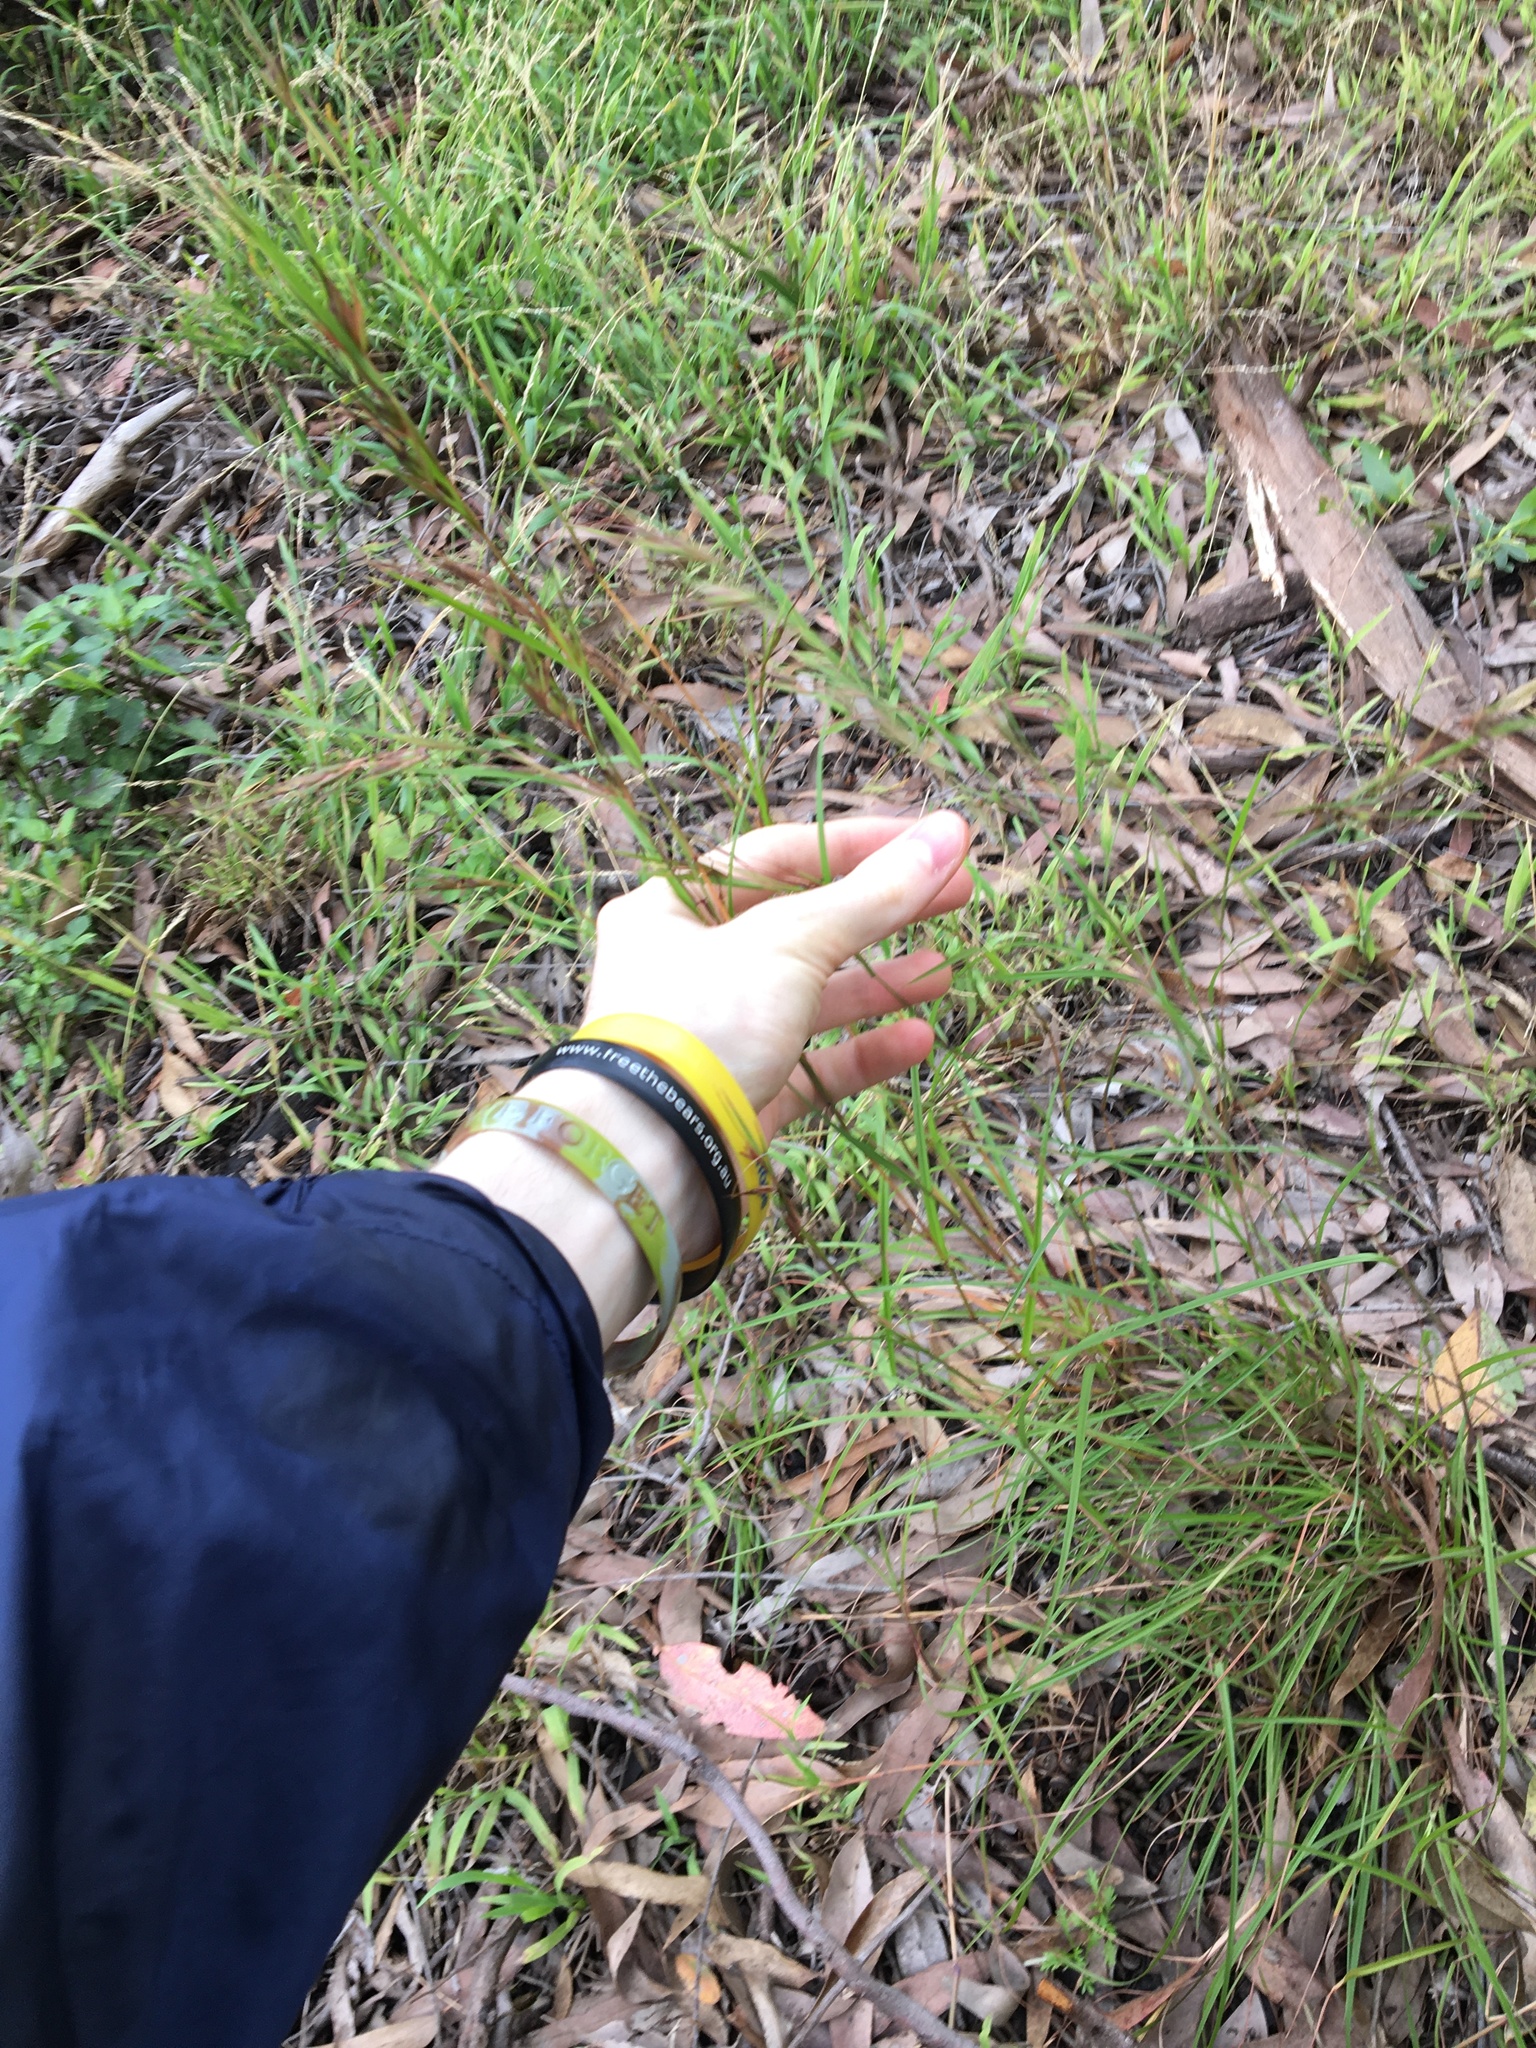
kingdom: Plantae
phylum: Tracheophyta
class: Liliopsida
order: Poales
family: Poaceae
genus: Themeda
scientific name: Themeda triandra
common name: Kangaroo grass
